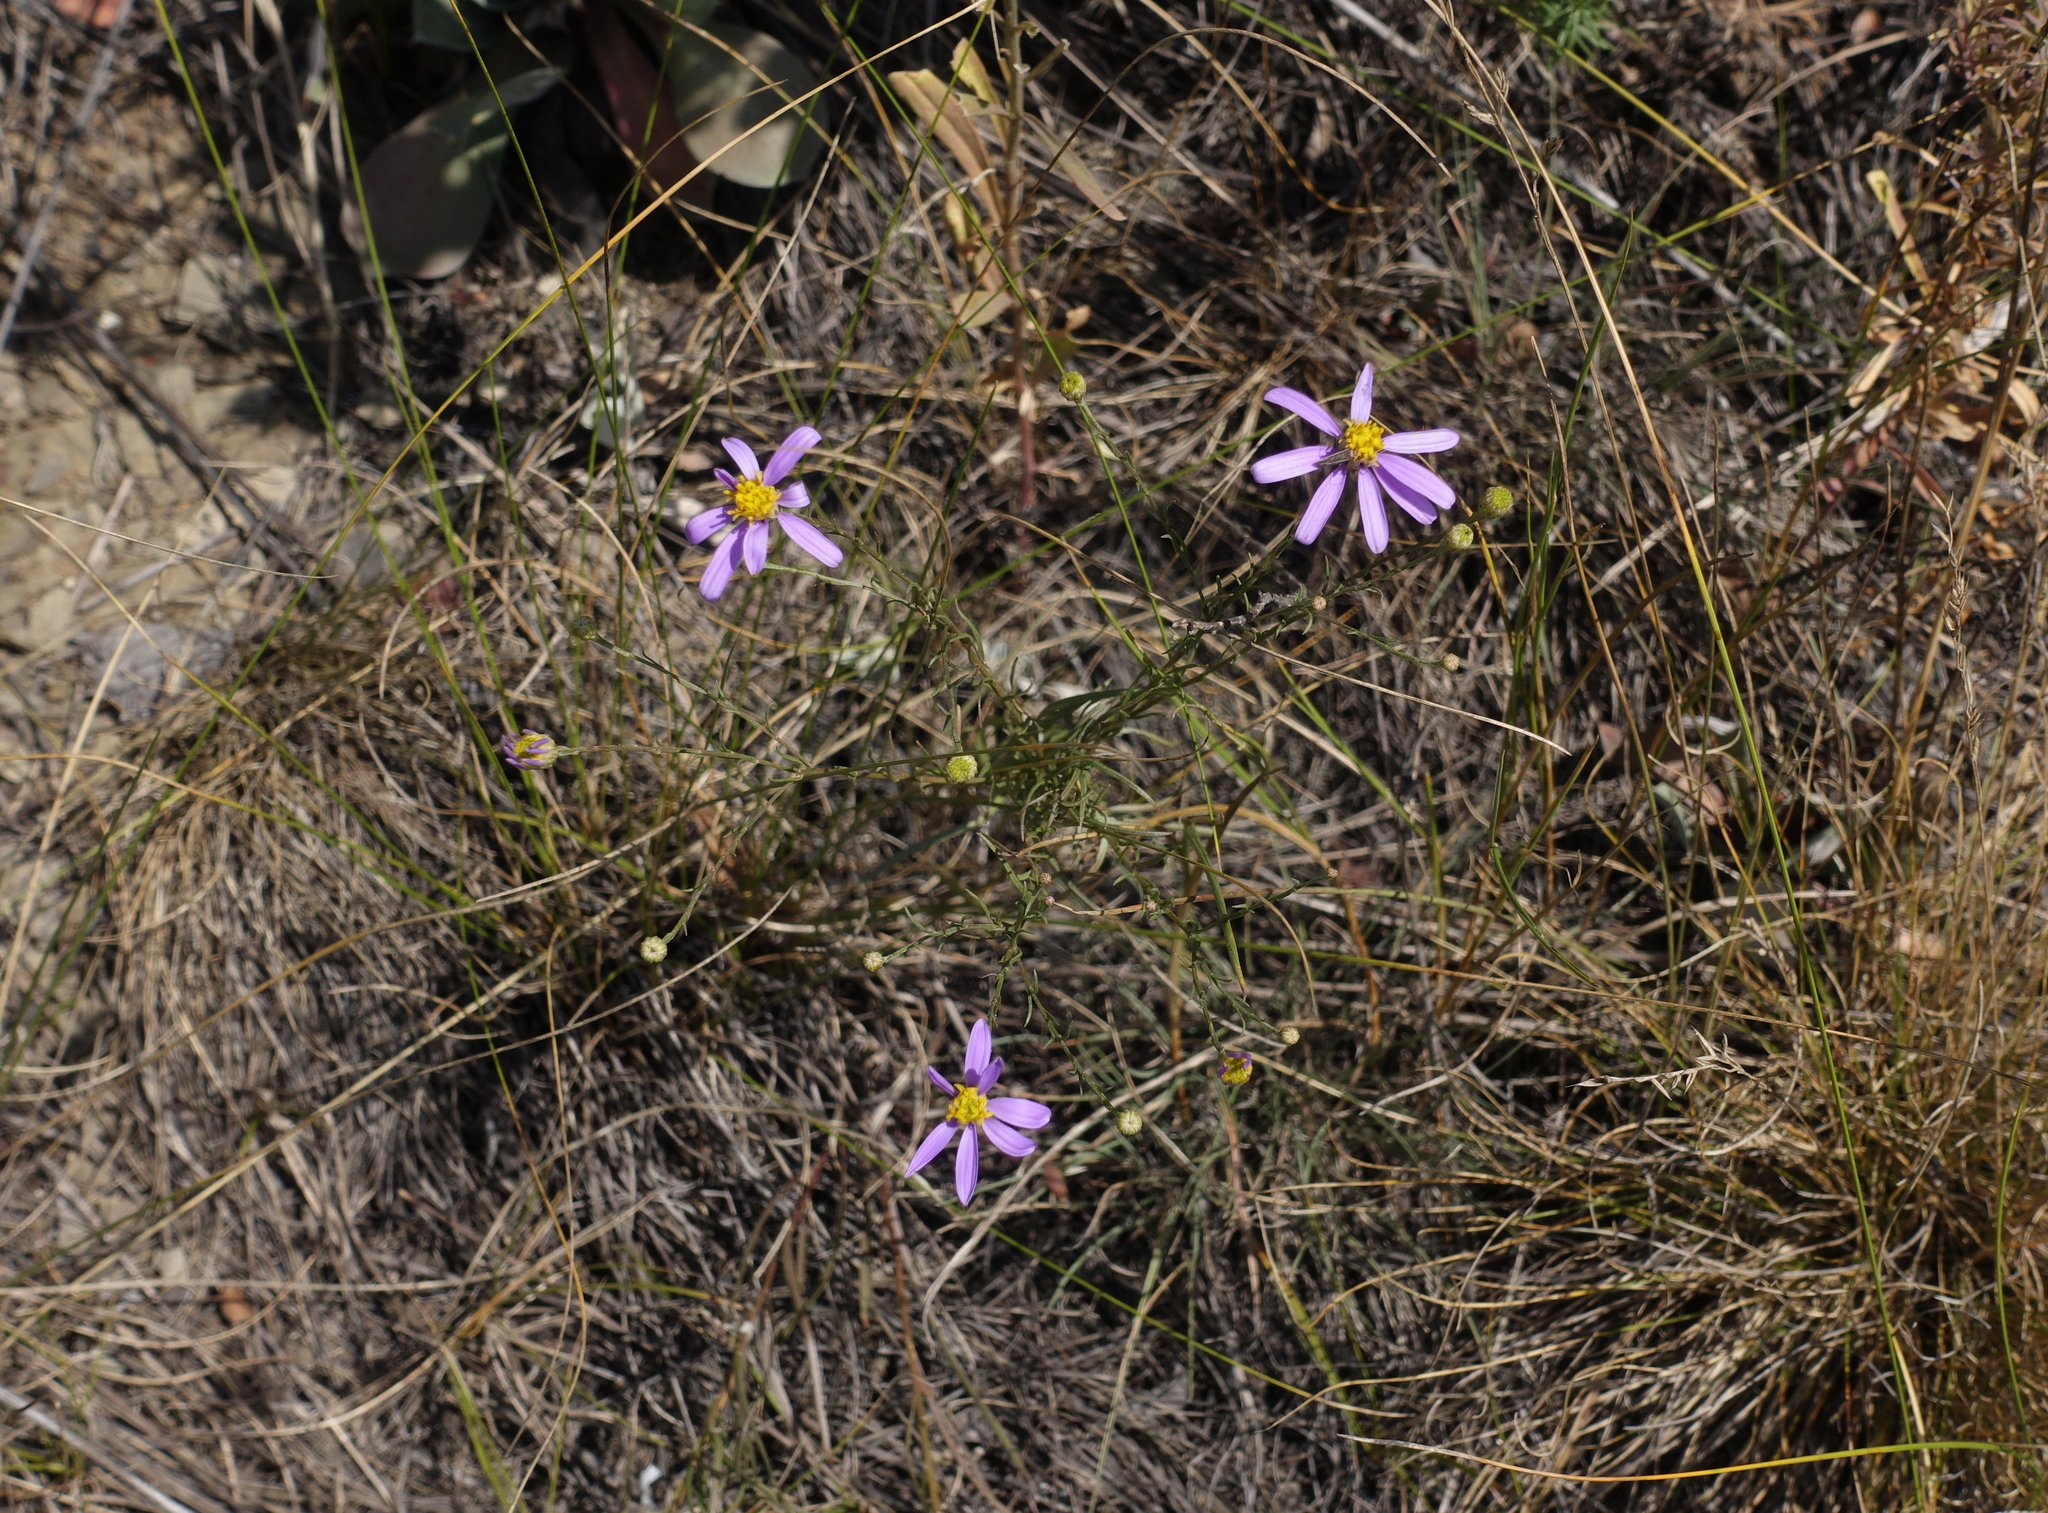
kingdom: Plantae
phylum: Tracheophyta
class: Magnoliopsida
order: Asterales
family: Asteraceae
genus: Galatella
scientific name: Galatella angustissima
